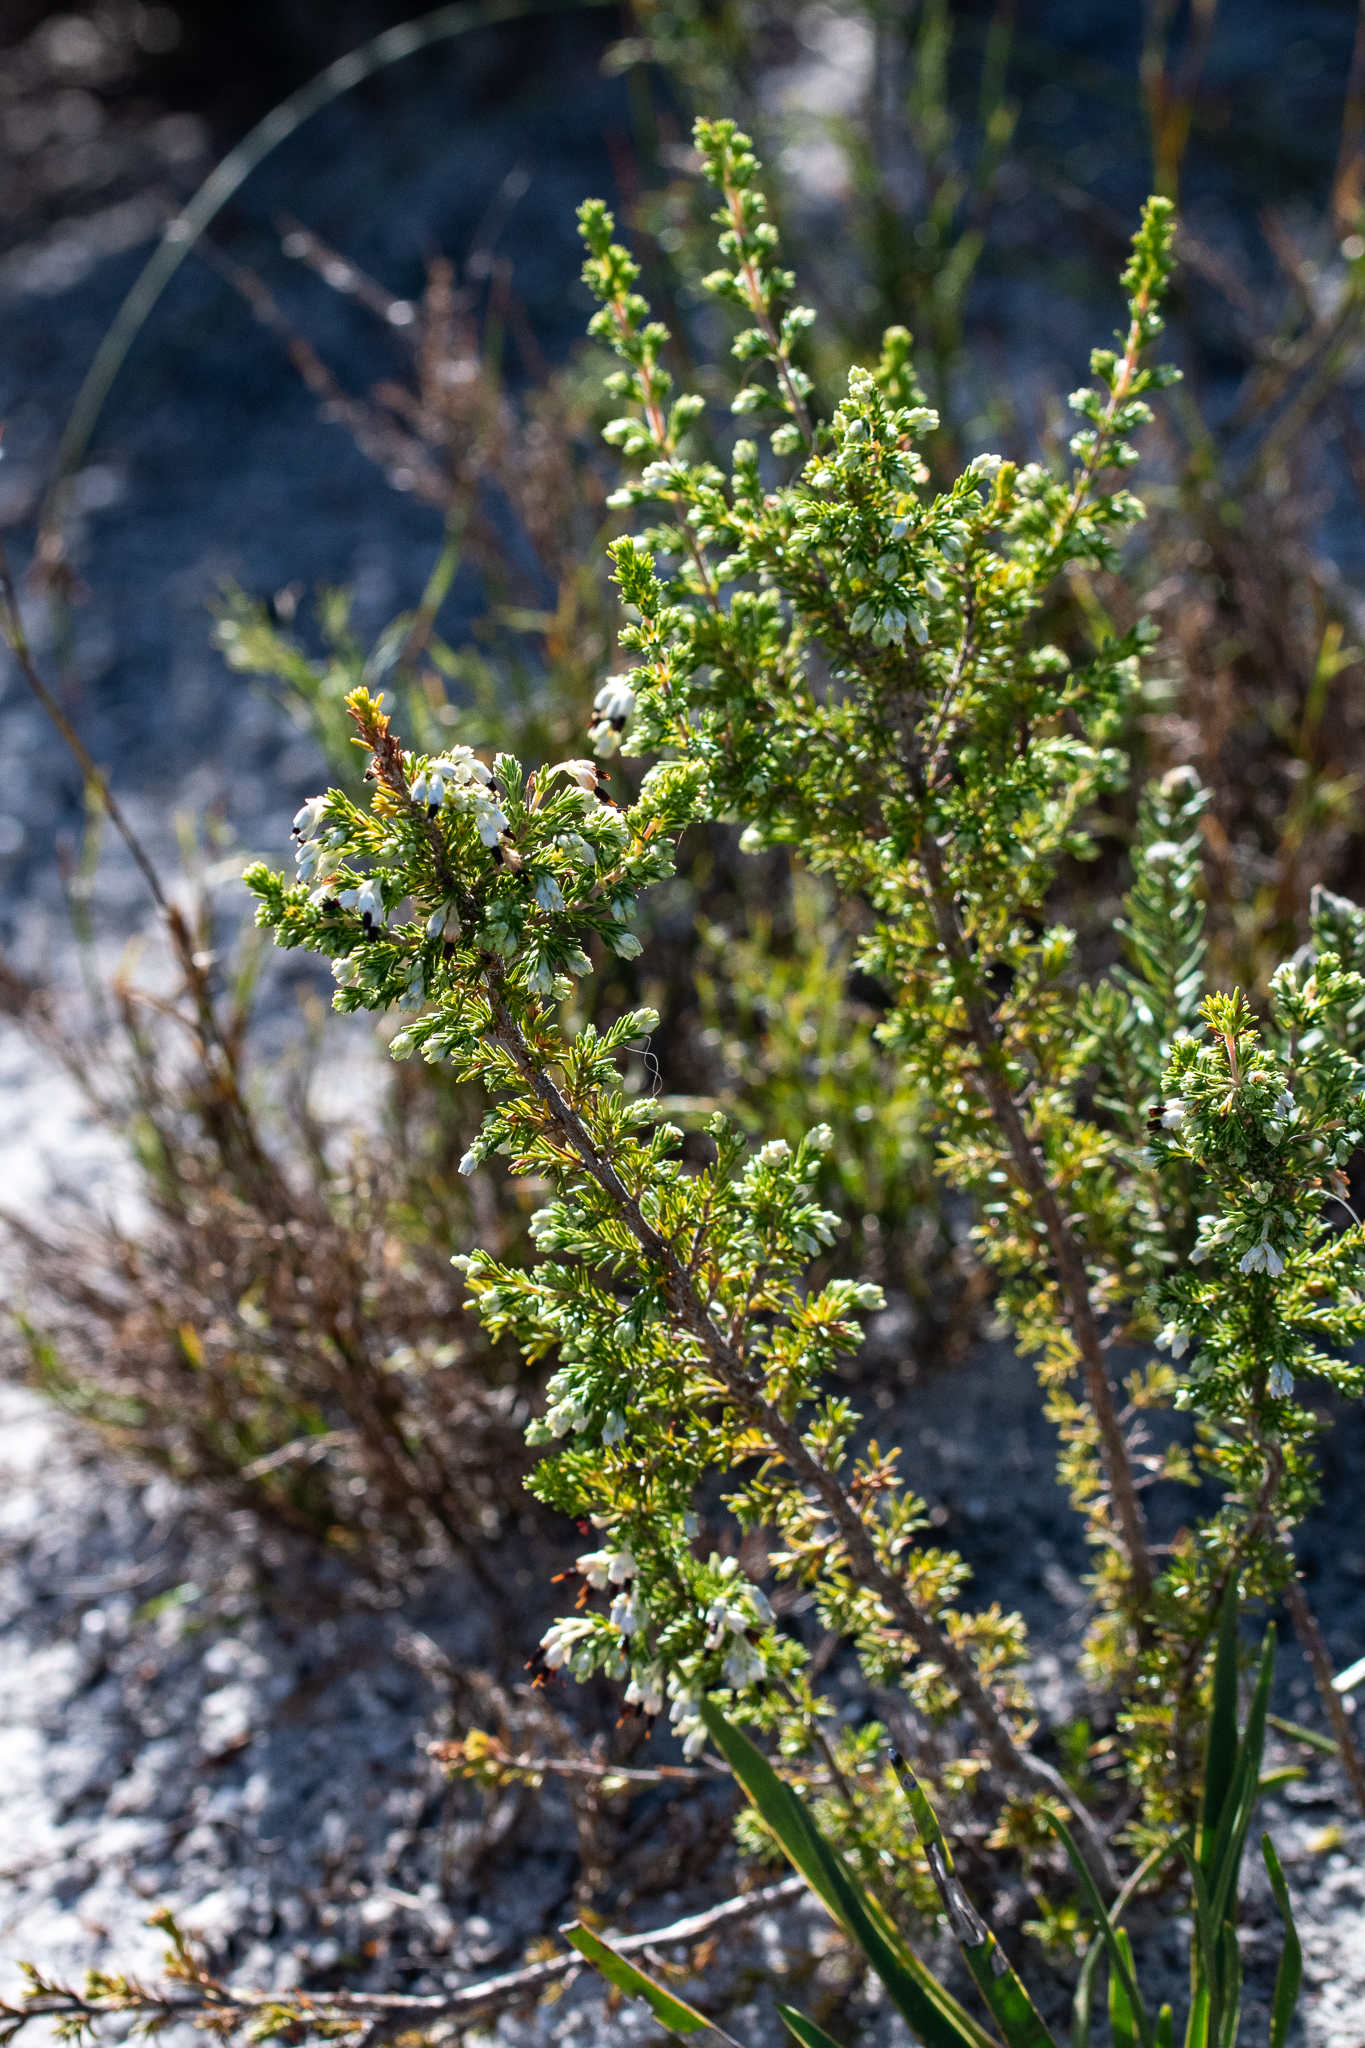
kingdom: Plantae
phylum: Tracheophyta
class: Magnoliopsida
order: Ericales
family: Ericaceae
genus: Erica
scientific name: Erica imbricata
